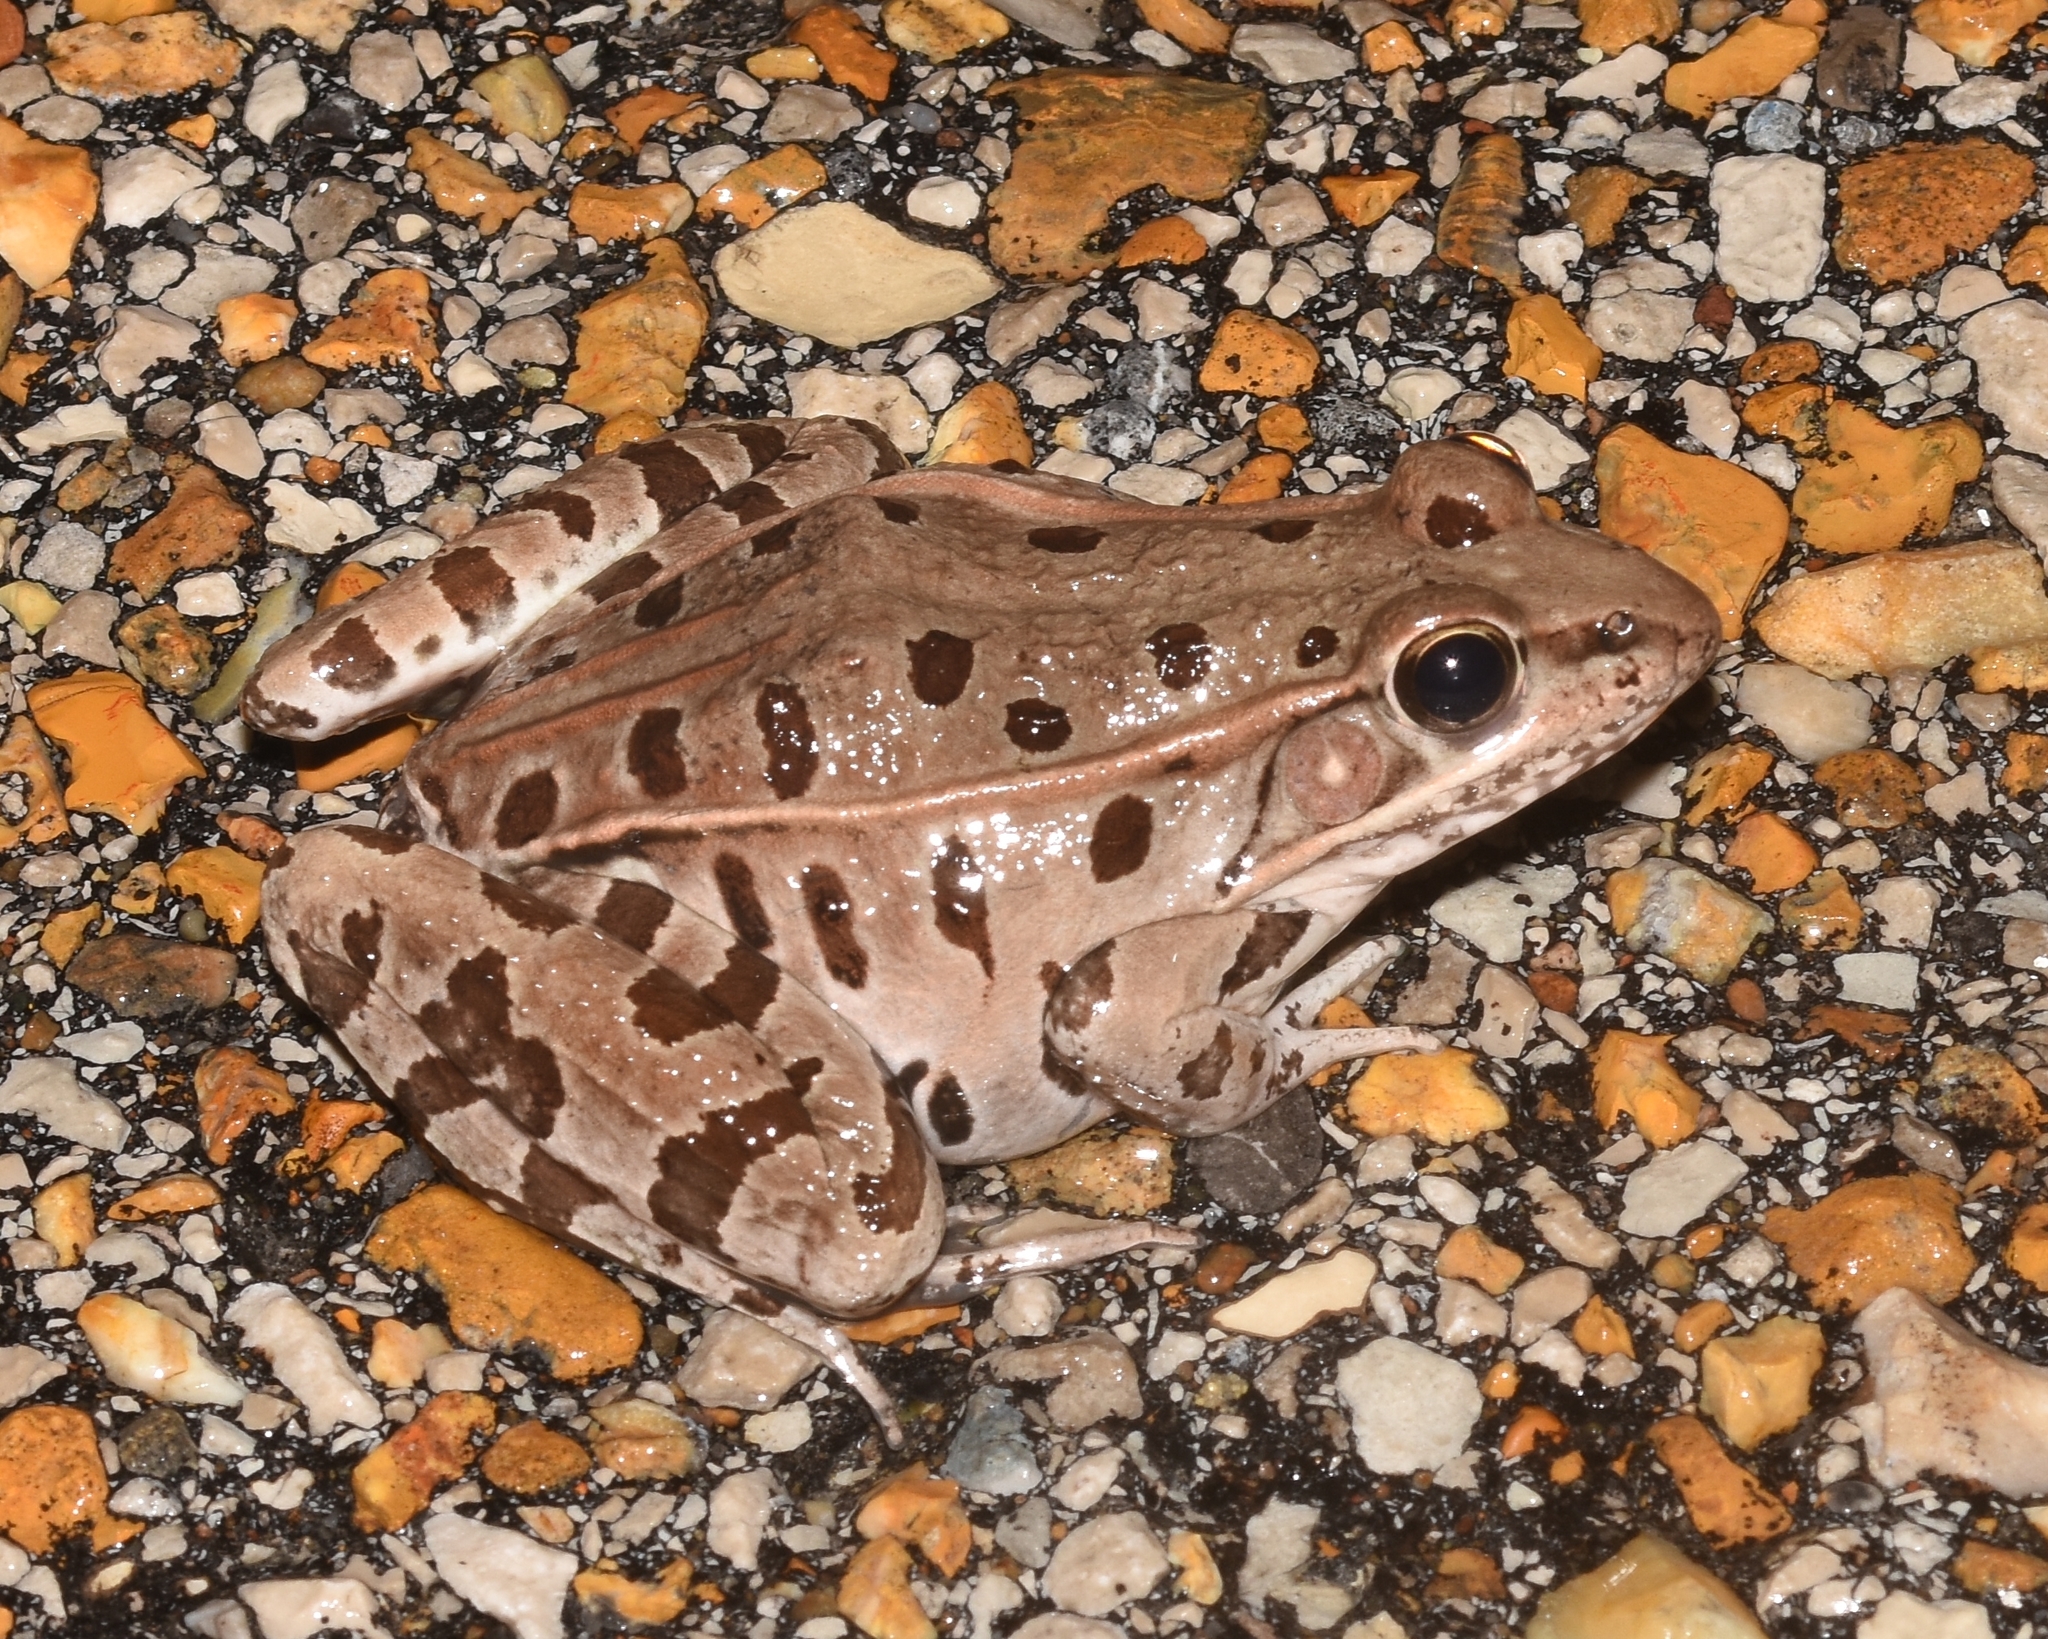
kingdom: Animalia
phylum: Chordata
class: Amphibia
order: Anura
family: Ranidae
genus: Lithobates
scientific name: Lithobates sphenocephalus
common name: Southern leopard frog
